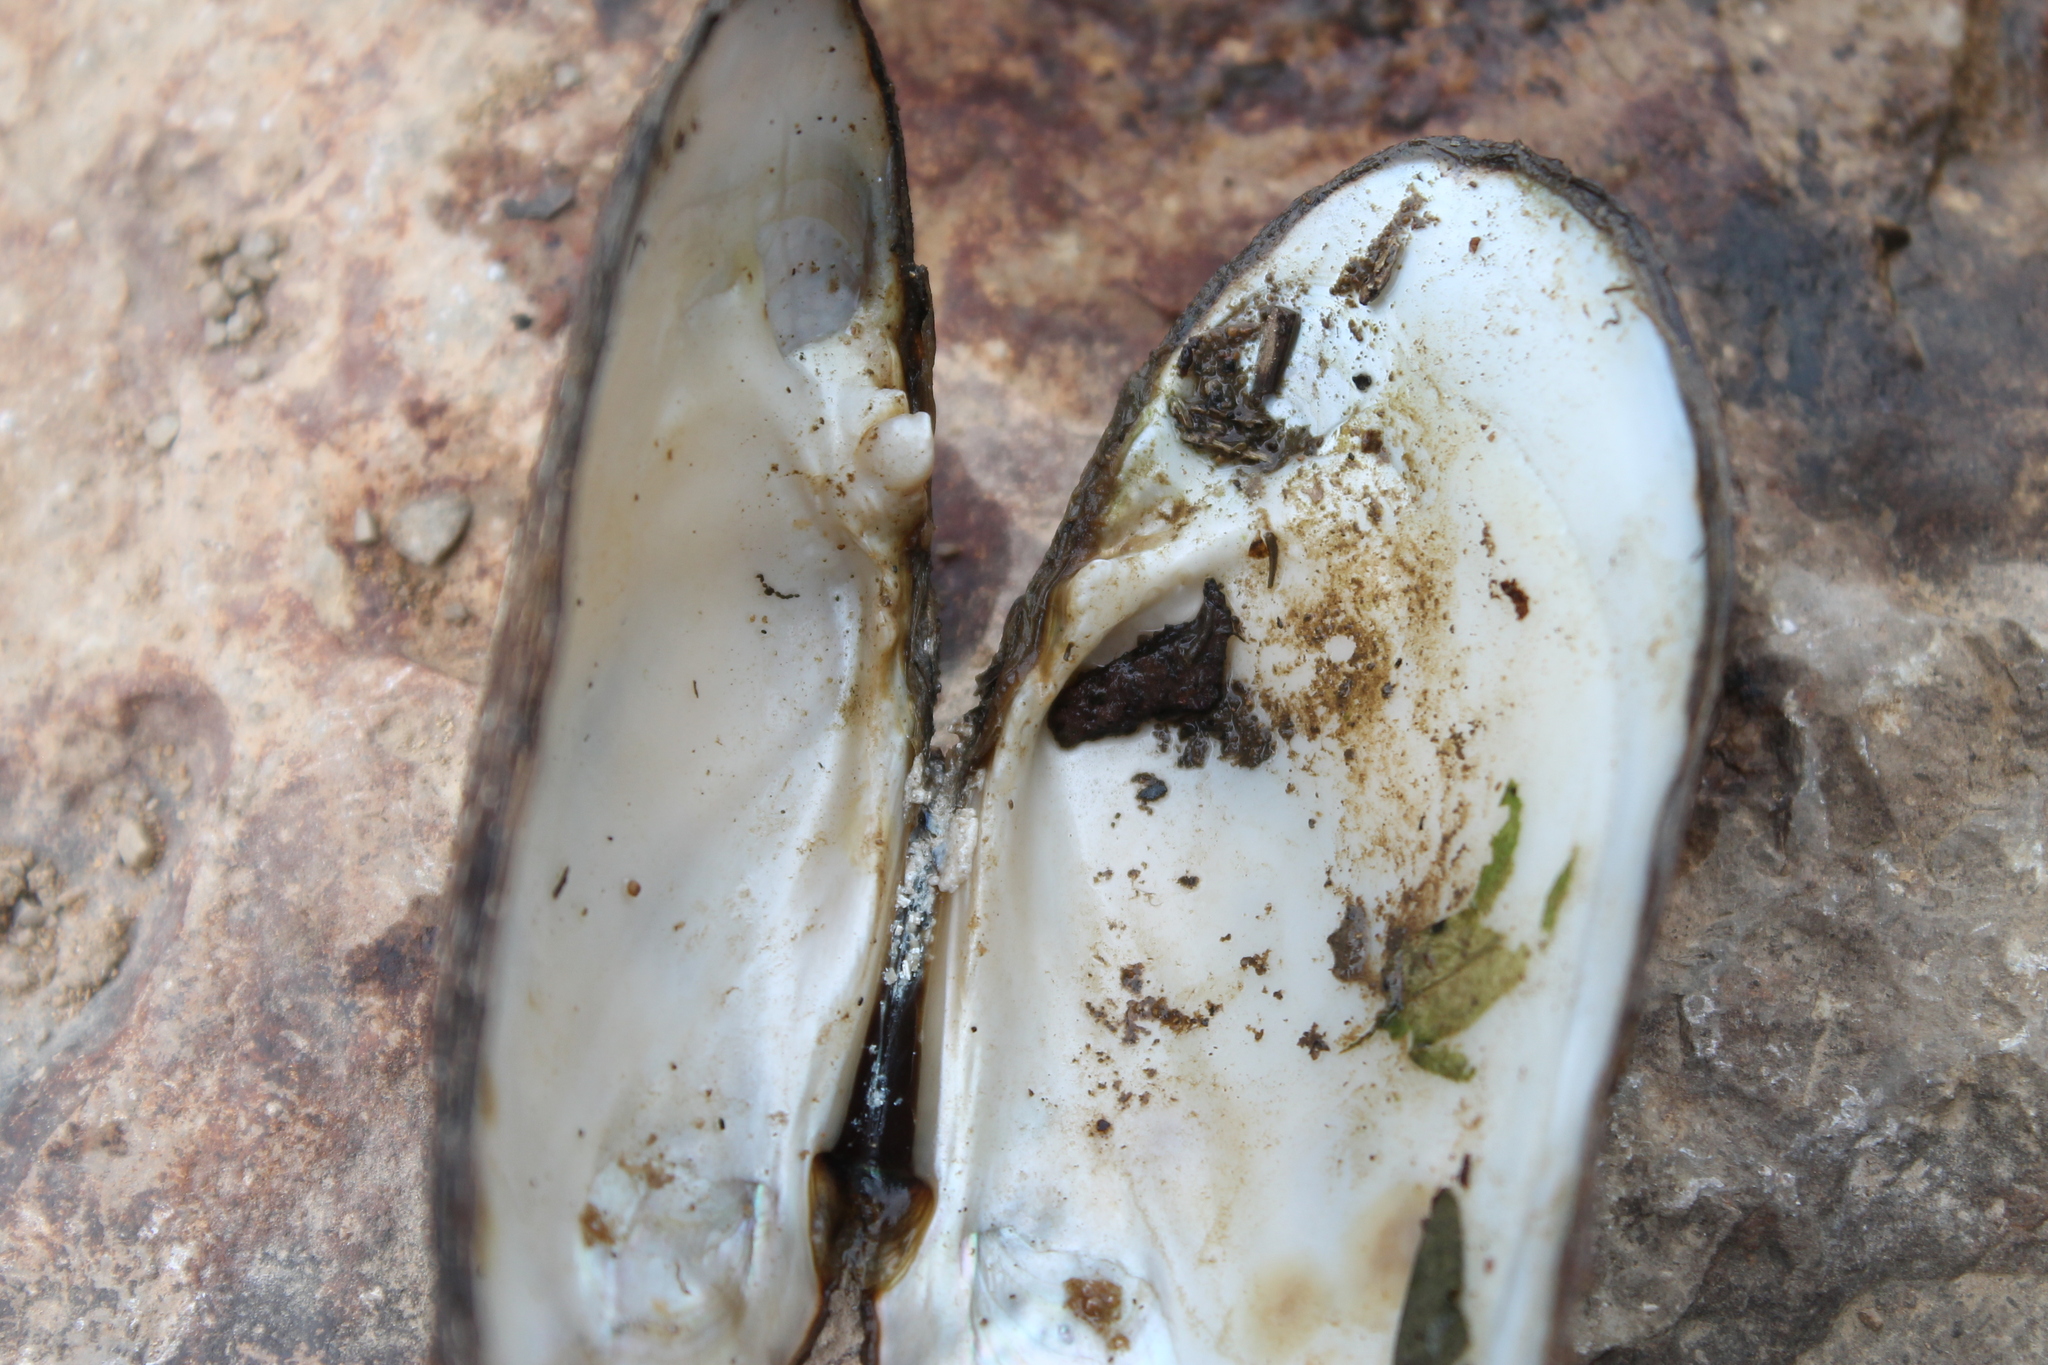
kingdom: Animalia
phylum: Mollusca
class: Bivalvia
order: Unionida
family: Unionidae
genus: Lasmigona
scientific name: Lasmigona costata
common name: Flutedshell
